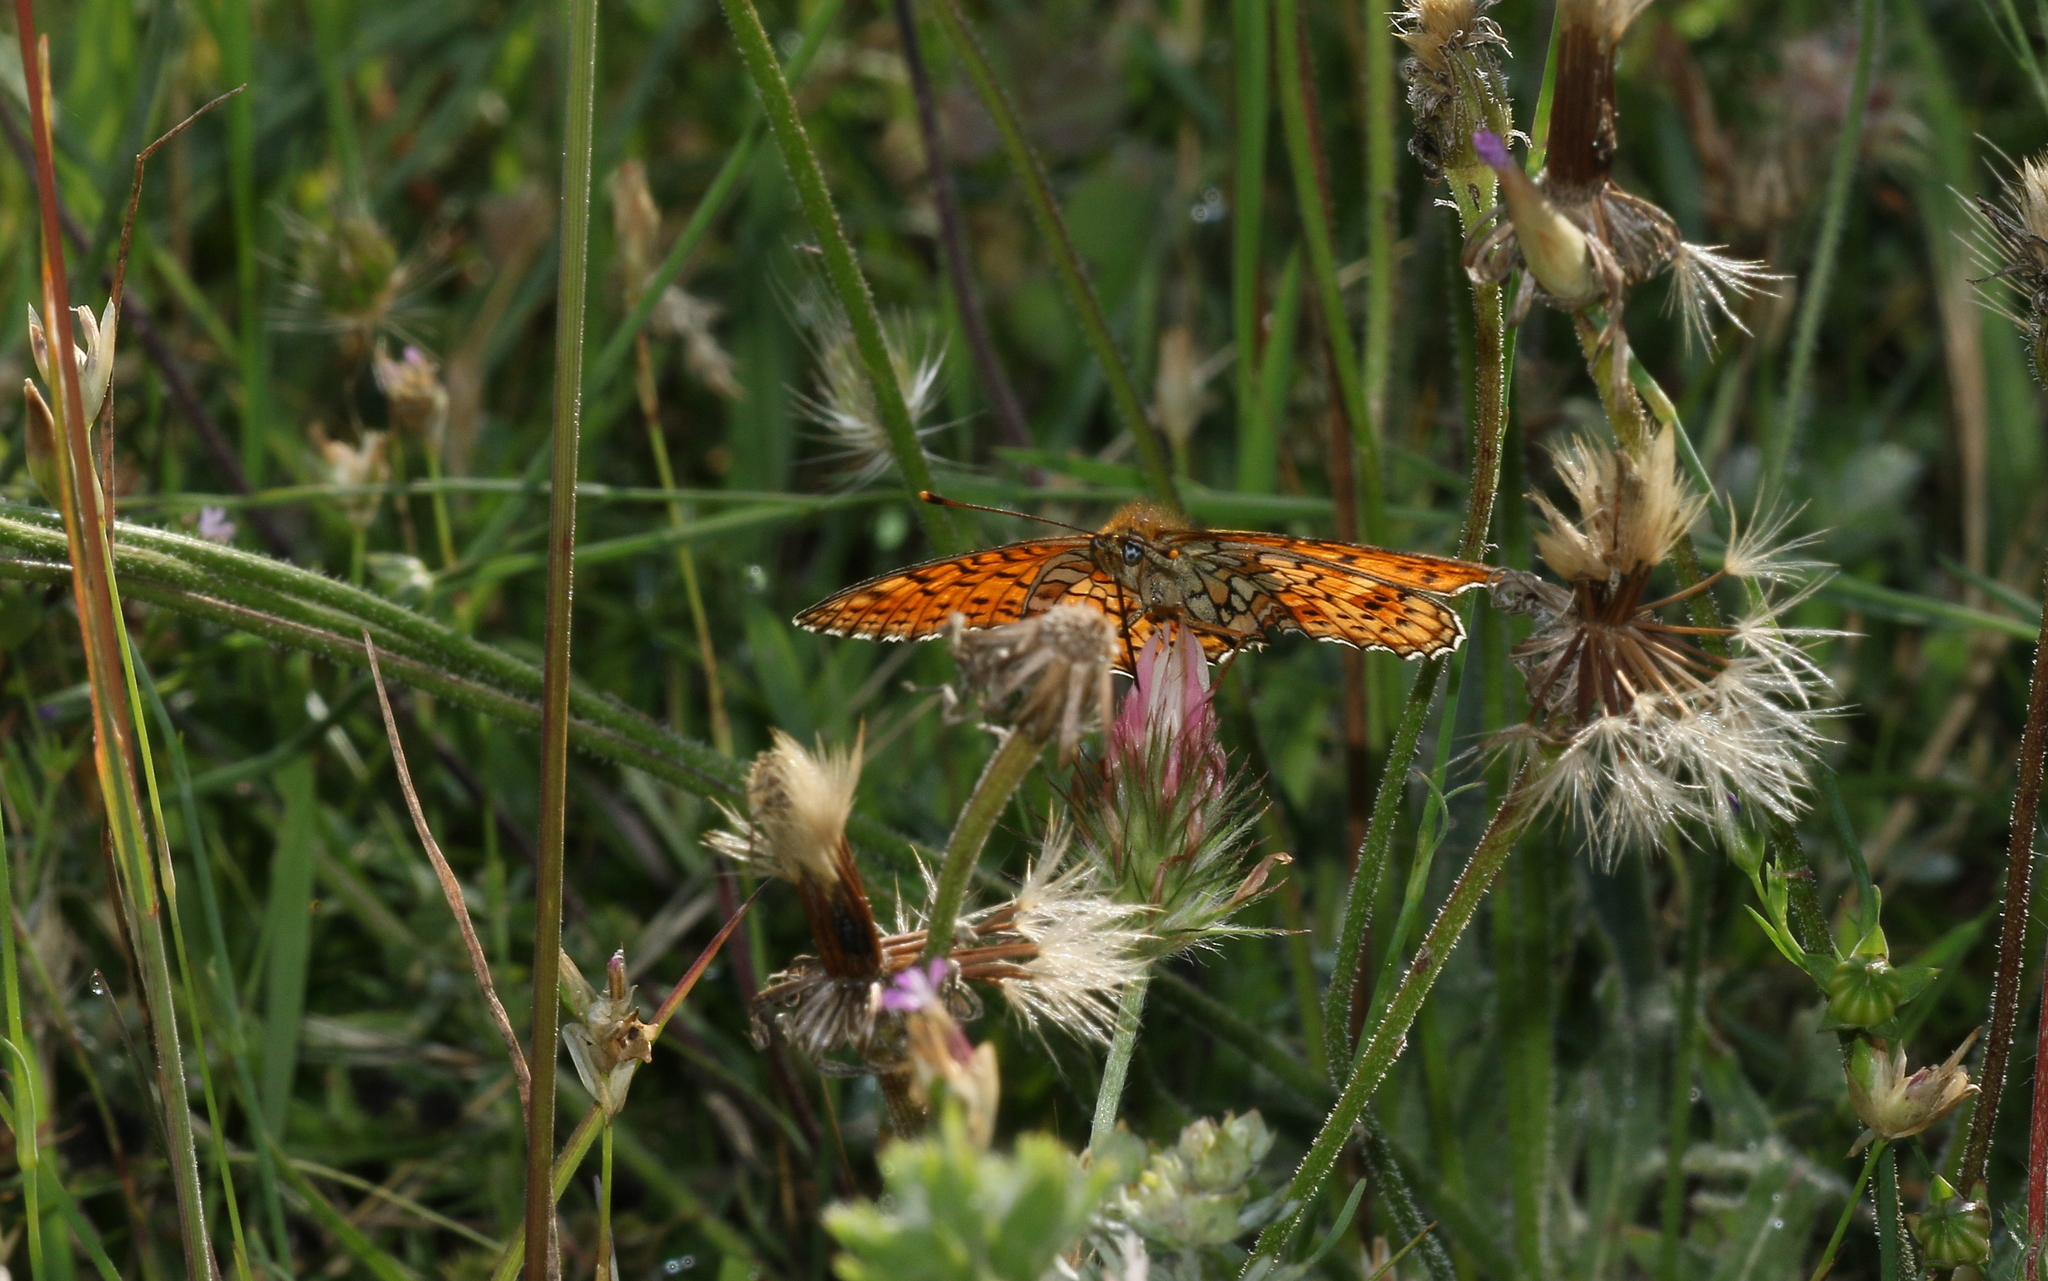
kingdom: Animalia
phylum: Arthropoda
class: Insecta
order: Lepidoptera
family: Nymphalidae
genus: Brenthis
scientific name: Brenthis hecate
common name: Twin-spot fritillary
